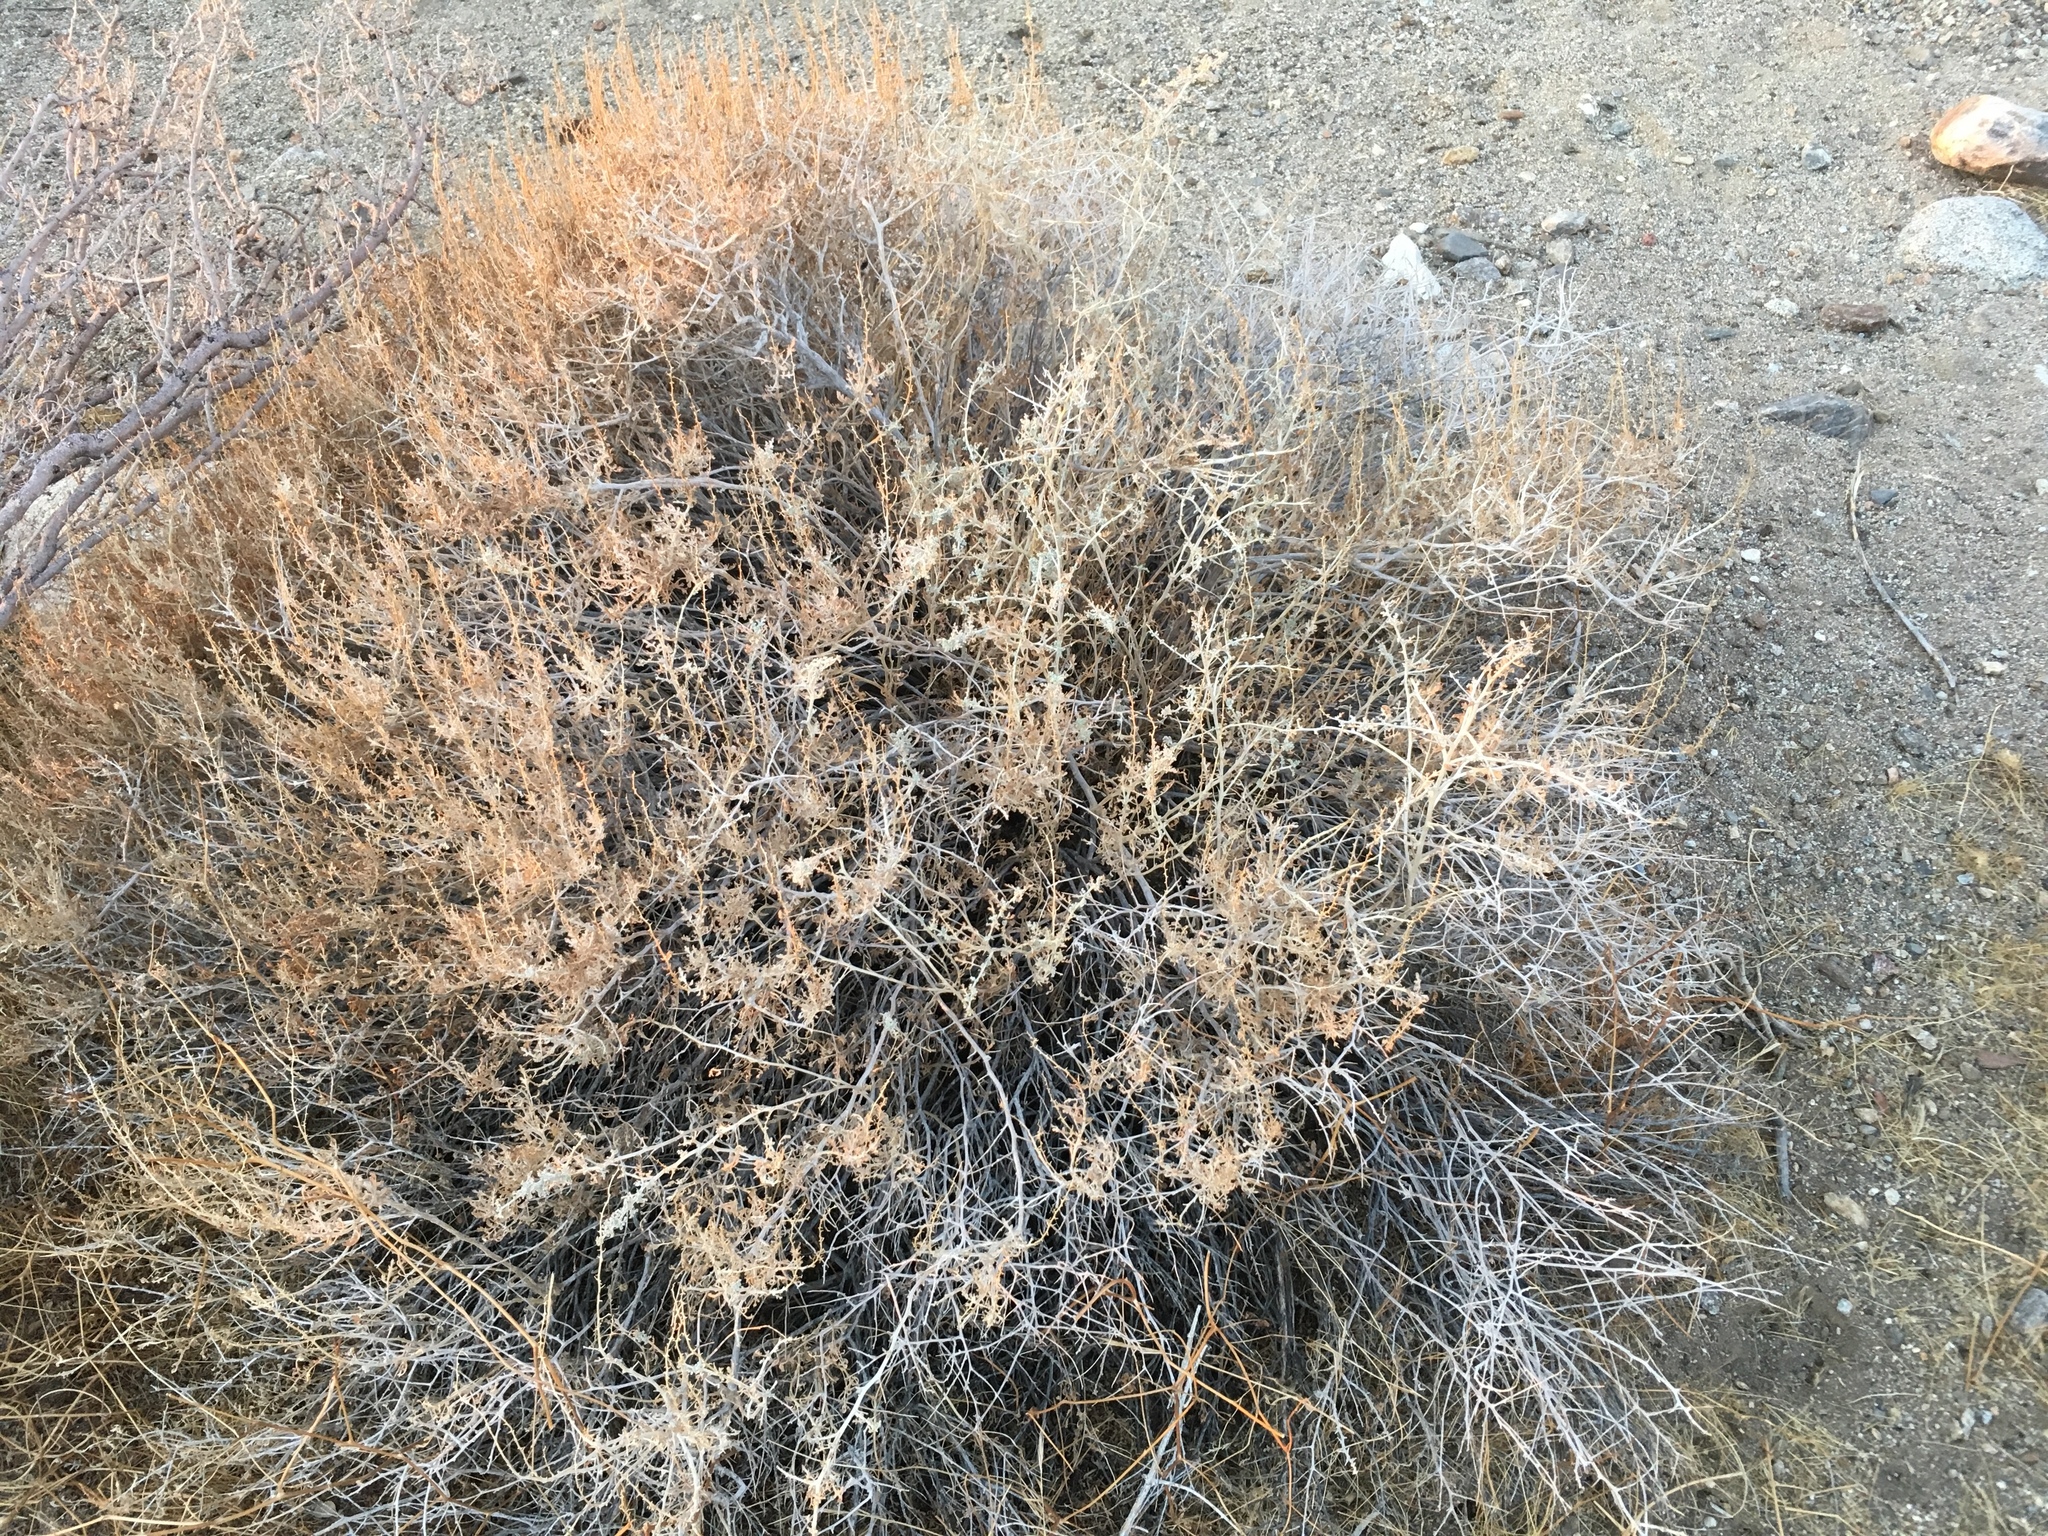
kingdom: Plantae
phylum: Tracheophyta
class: Magnoliopsida
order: Asterales
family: Asteraceae
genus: Ambrosia
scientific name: Ambrosia dumosa
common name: Bur-sage
